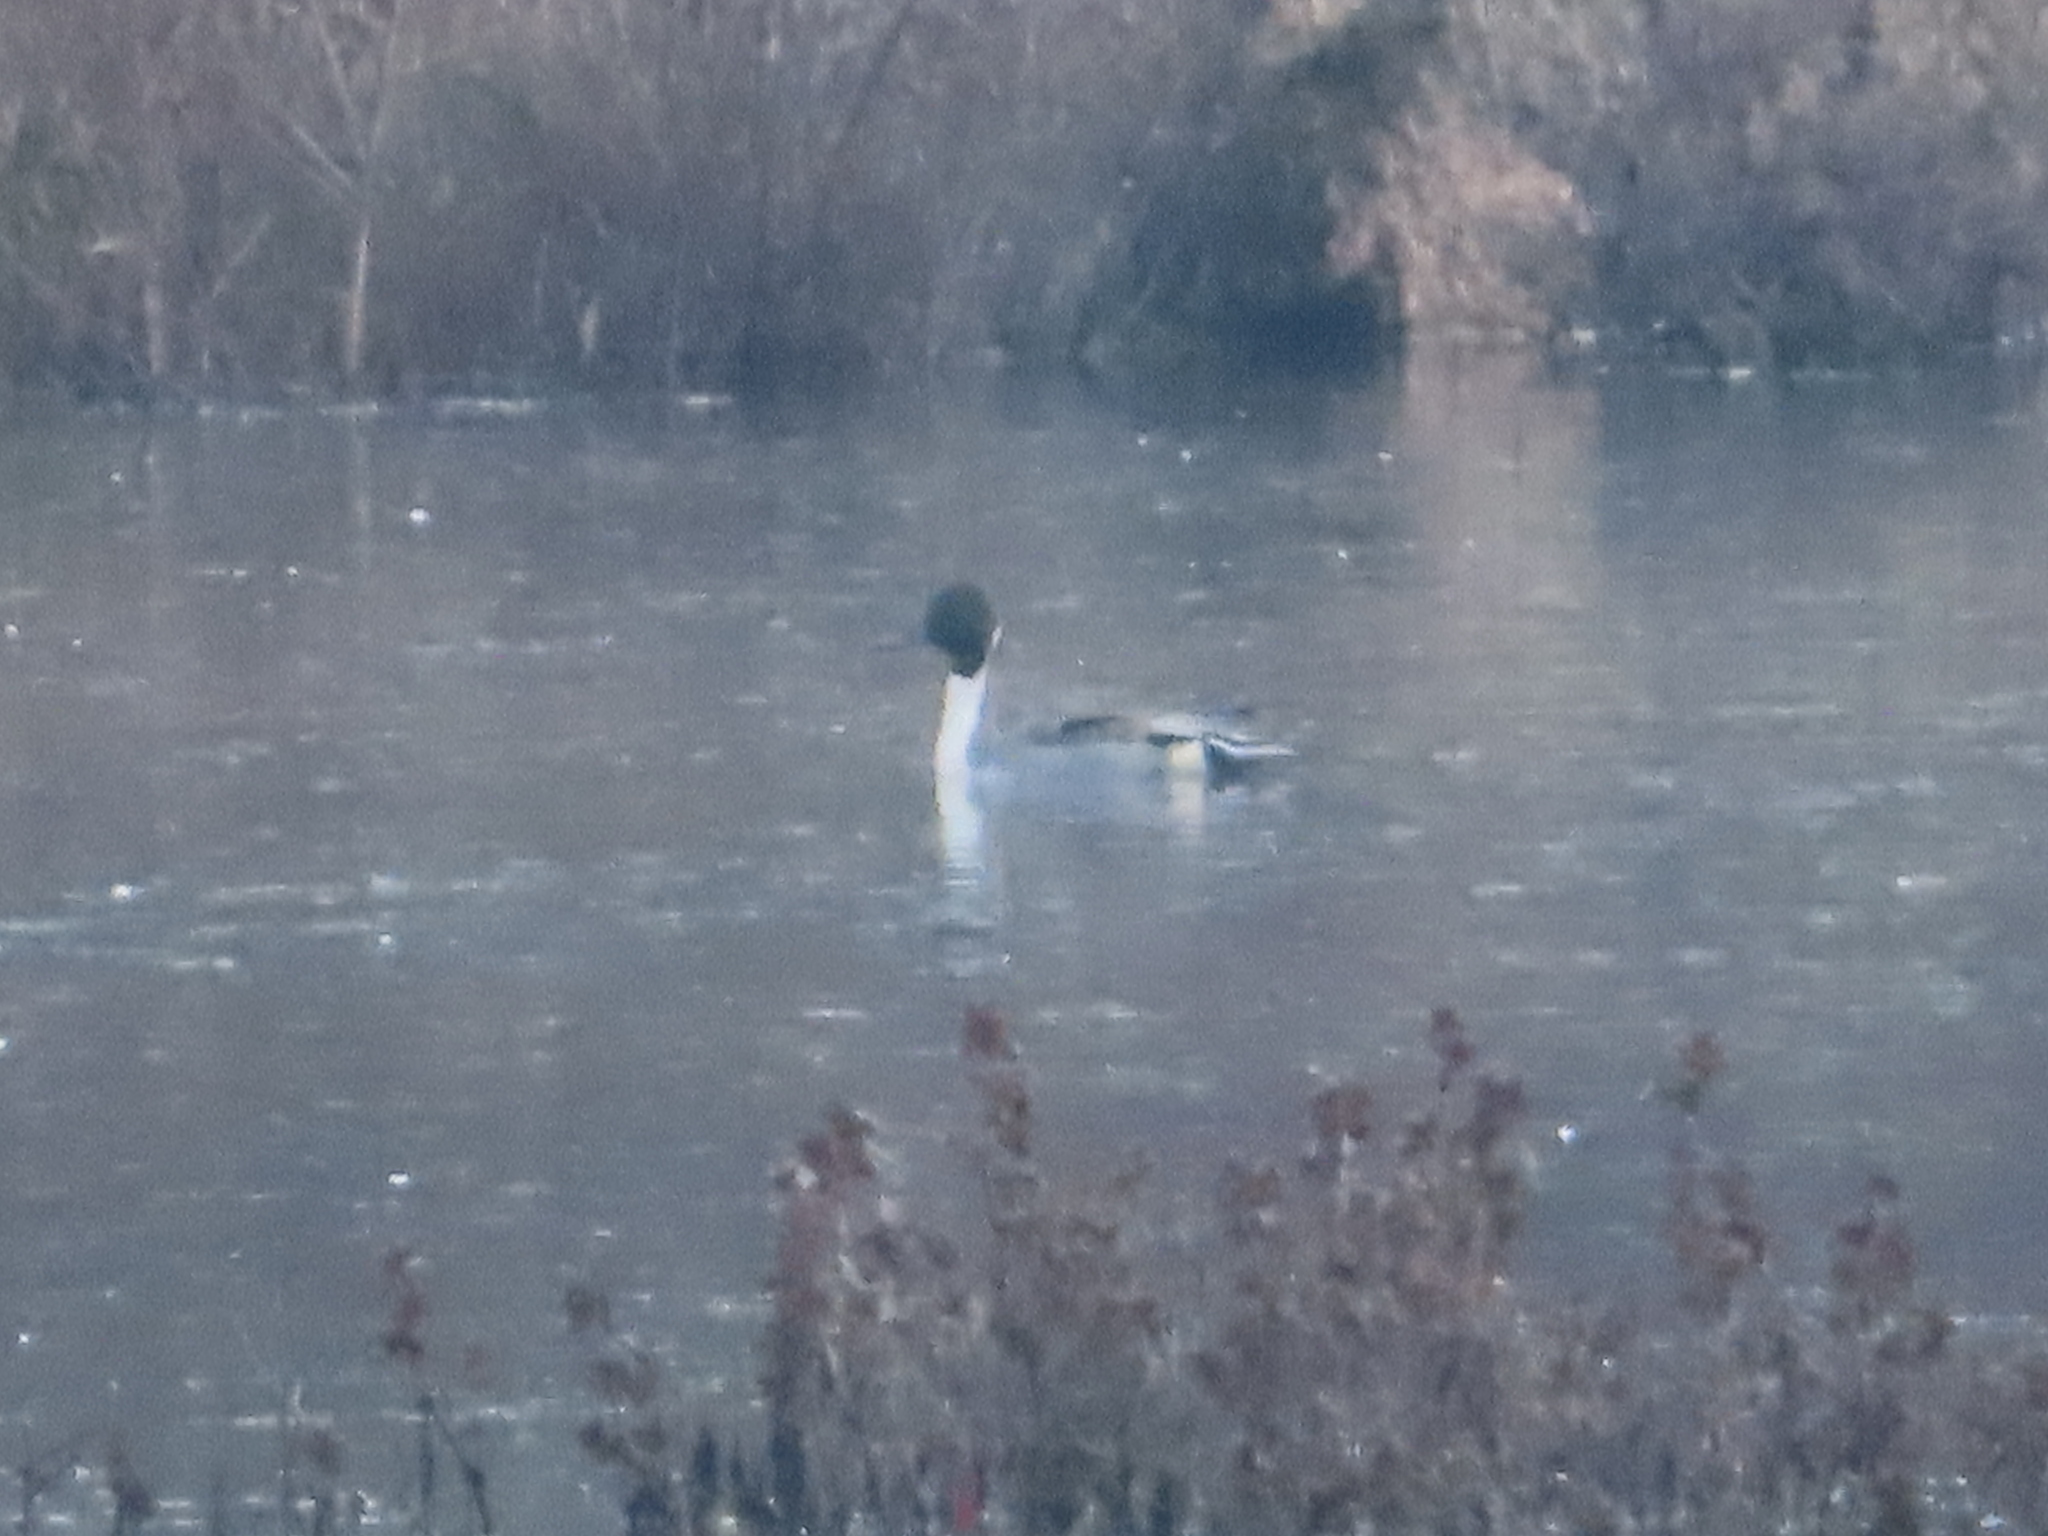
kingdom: Animalia
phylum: Chordata
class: Aves
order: Anseriformes
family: Anatidae
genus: Anas
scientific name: Anas acuta
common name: Northern pintail
